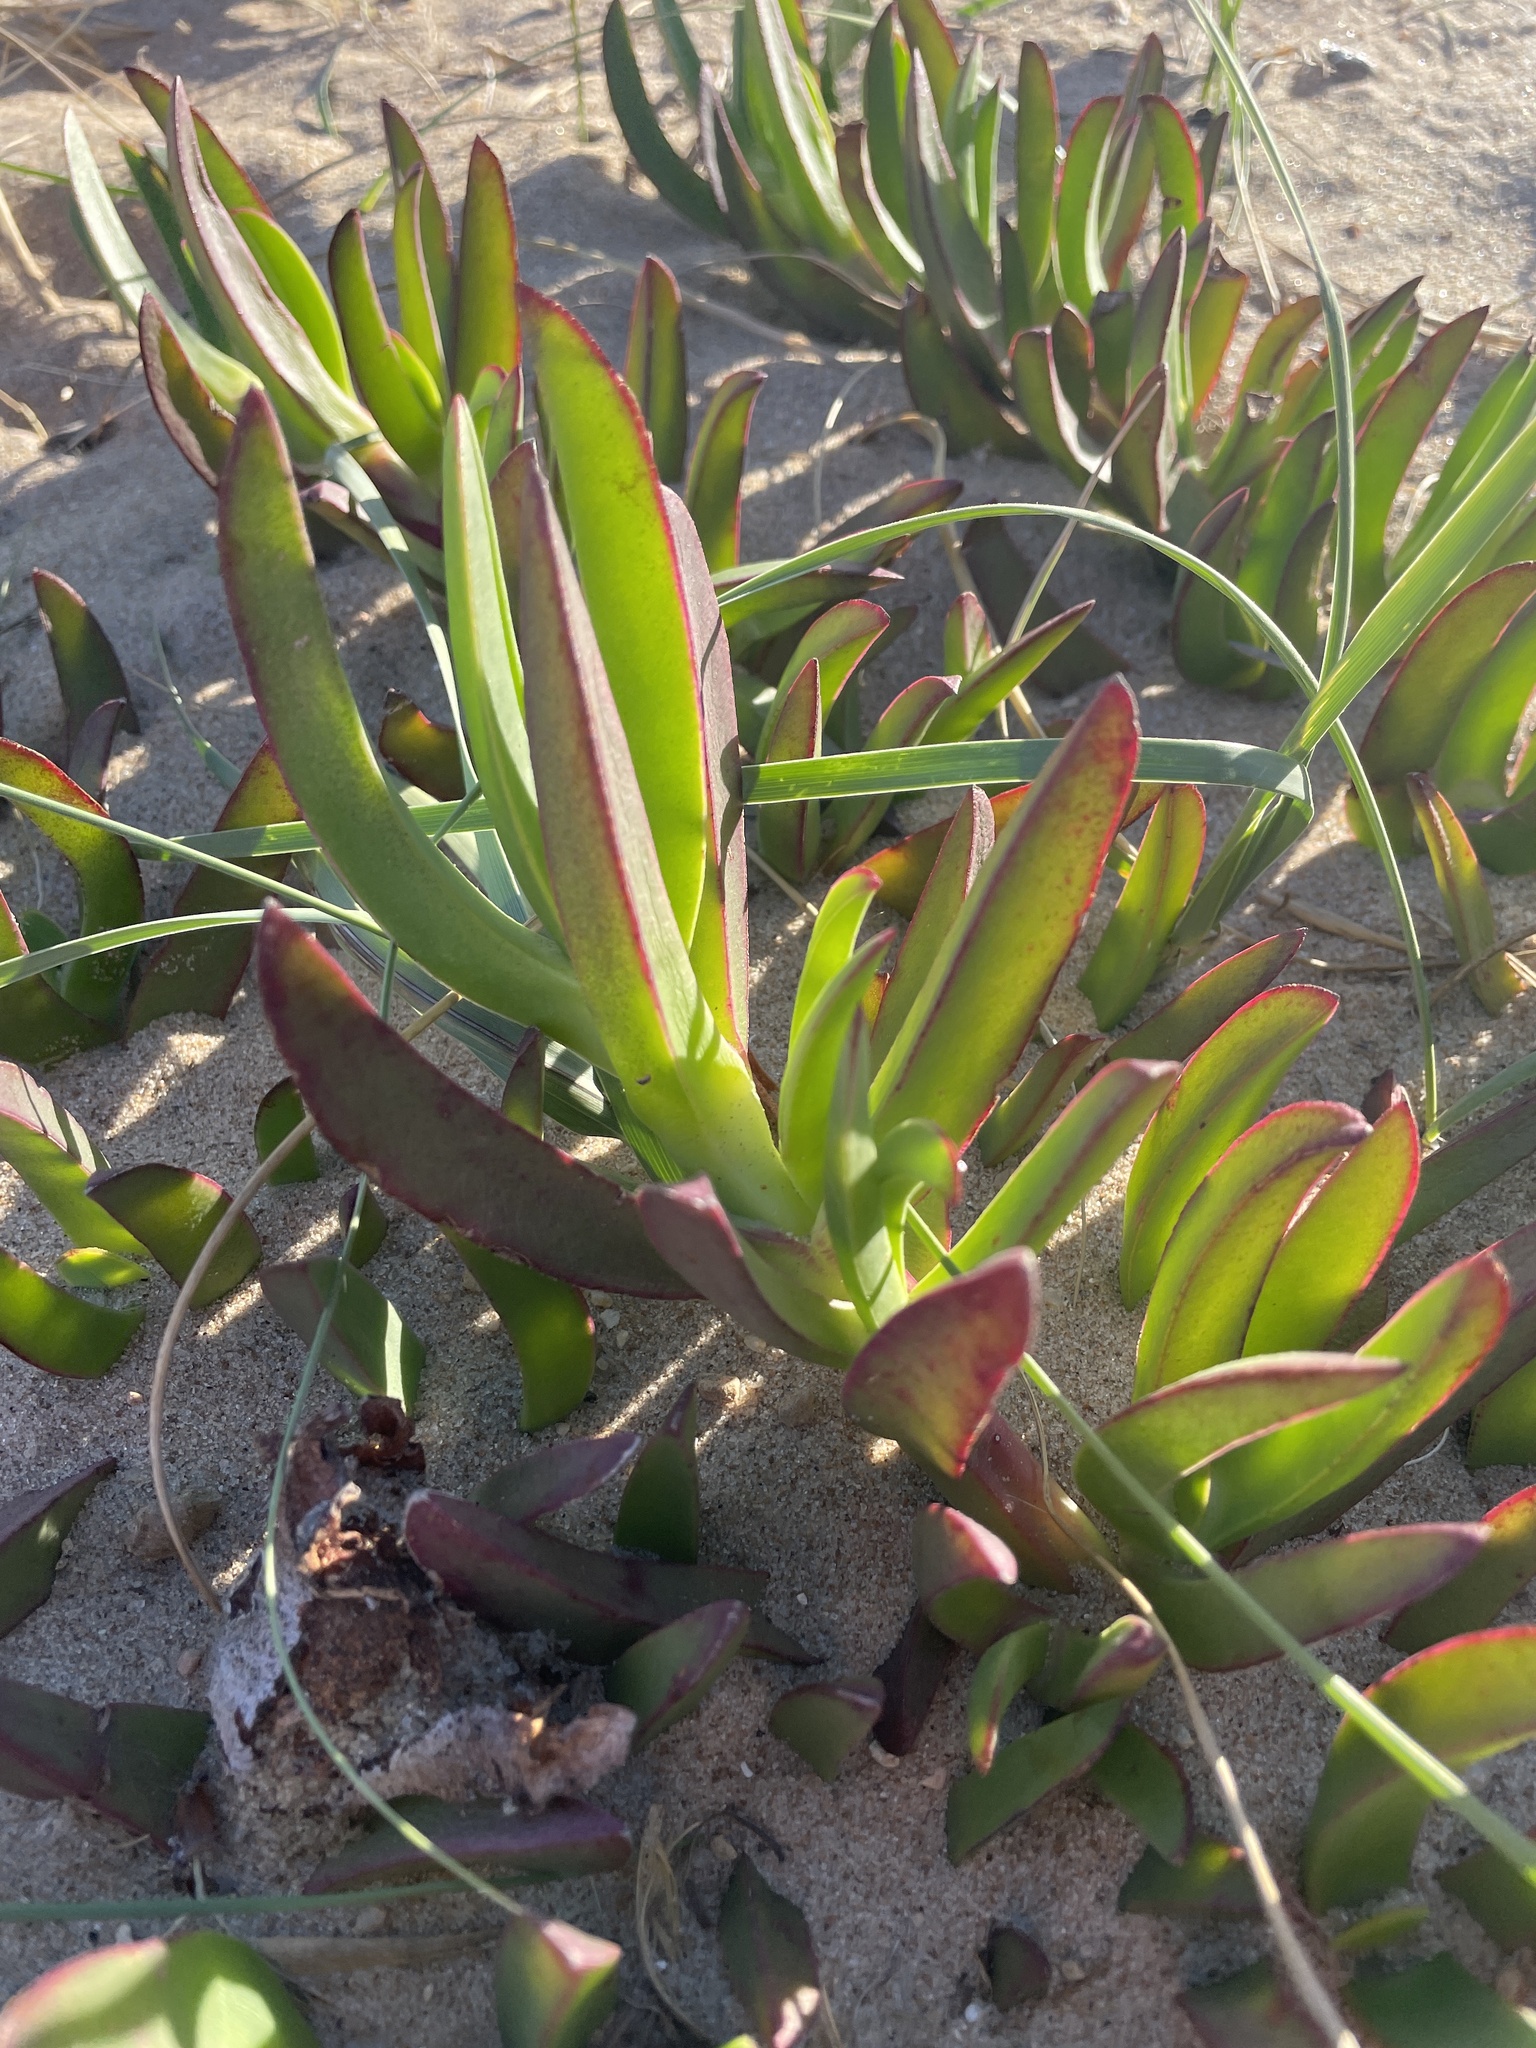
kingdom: Plantae
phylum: Tracheophyta
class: Magnoliopsida
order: Caryophyllales
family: Aizoaceae
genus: Carpobrotus
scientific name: Carpobrotus edulis
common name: Hottentot-fig
